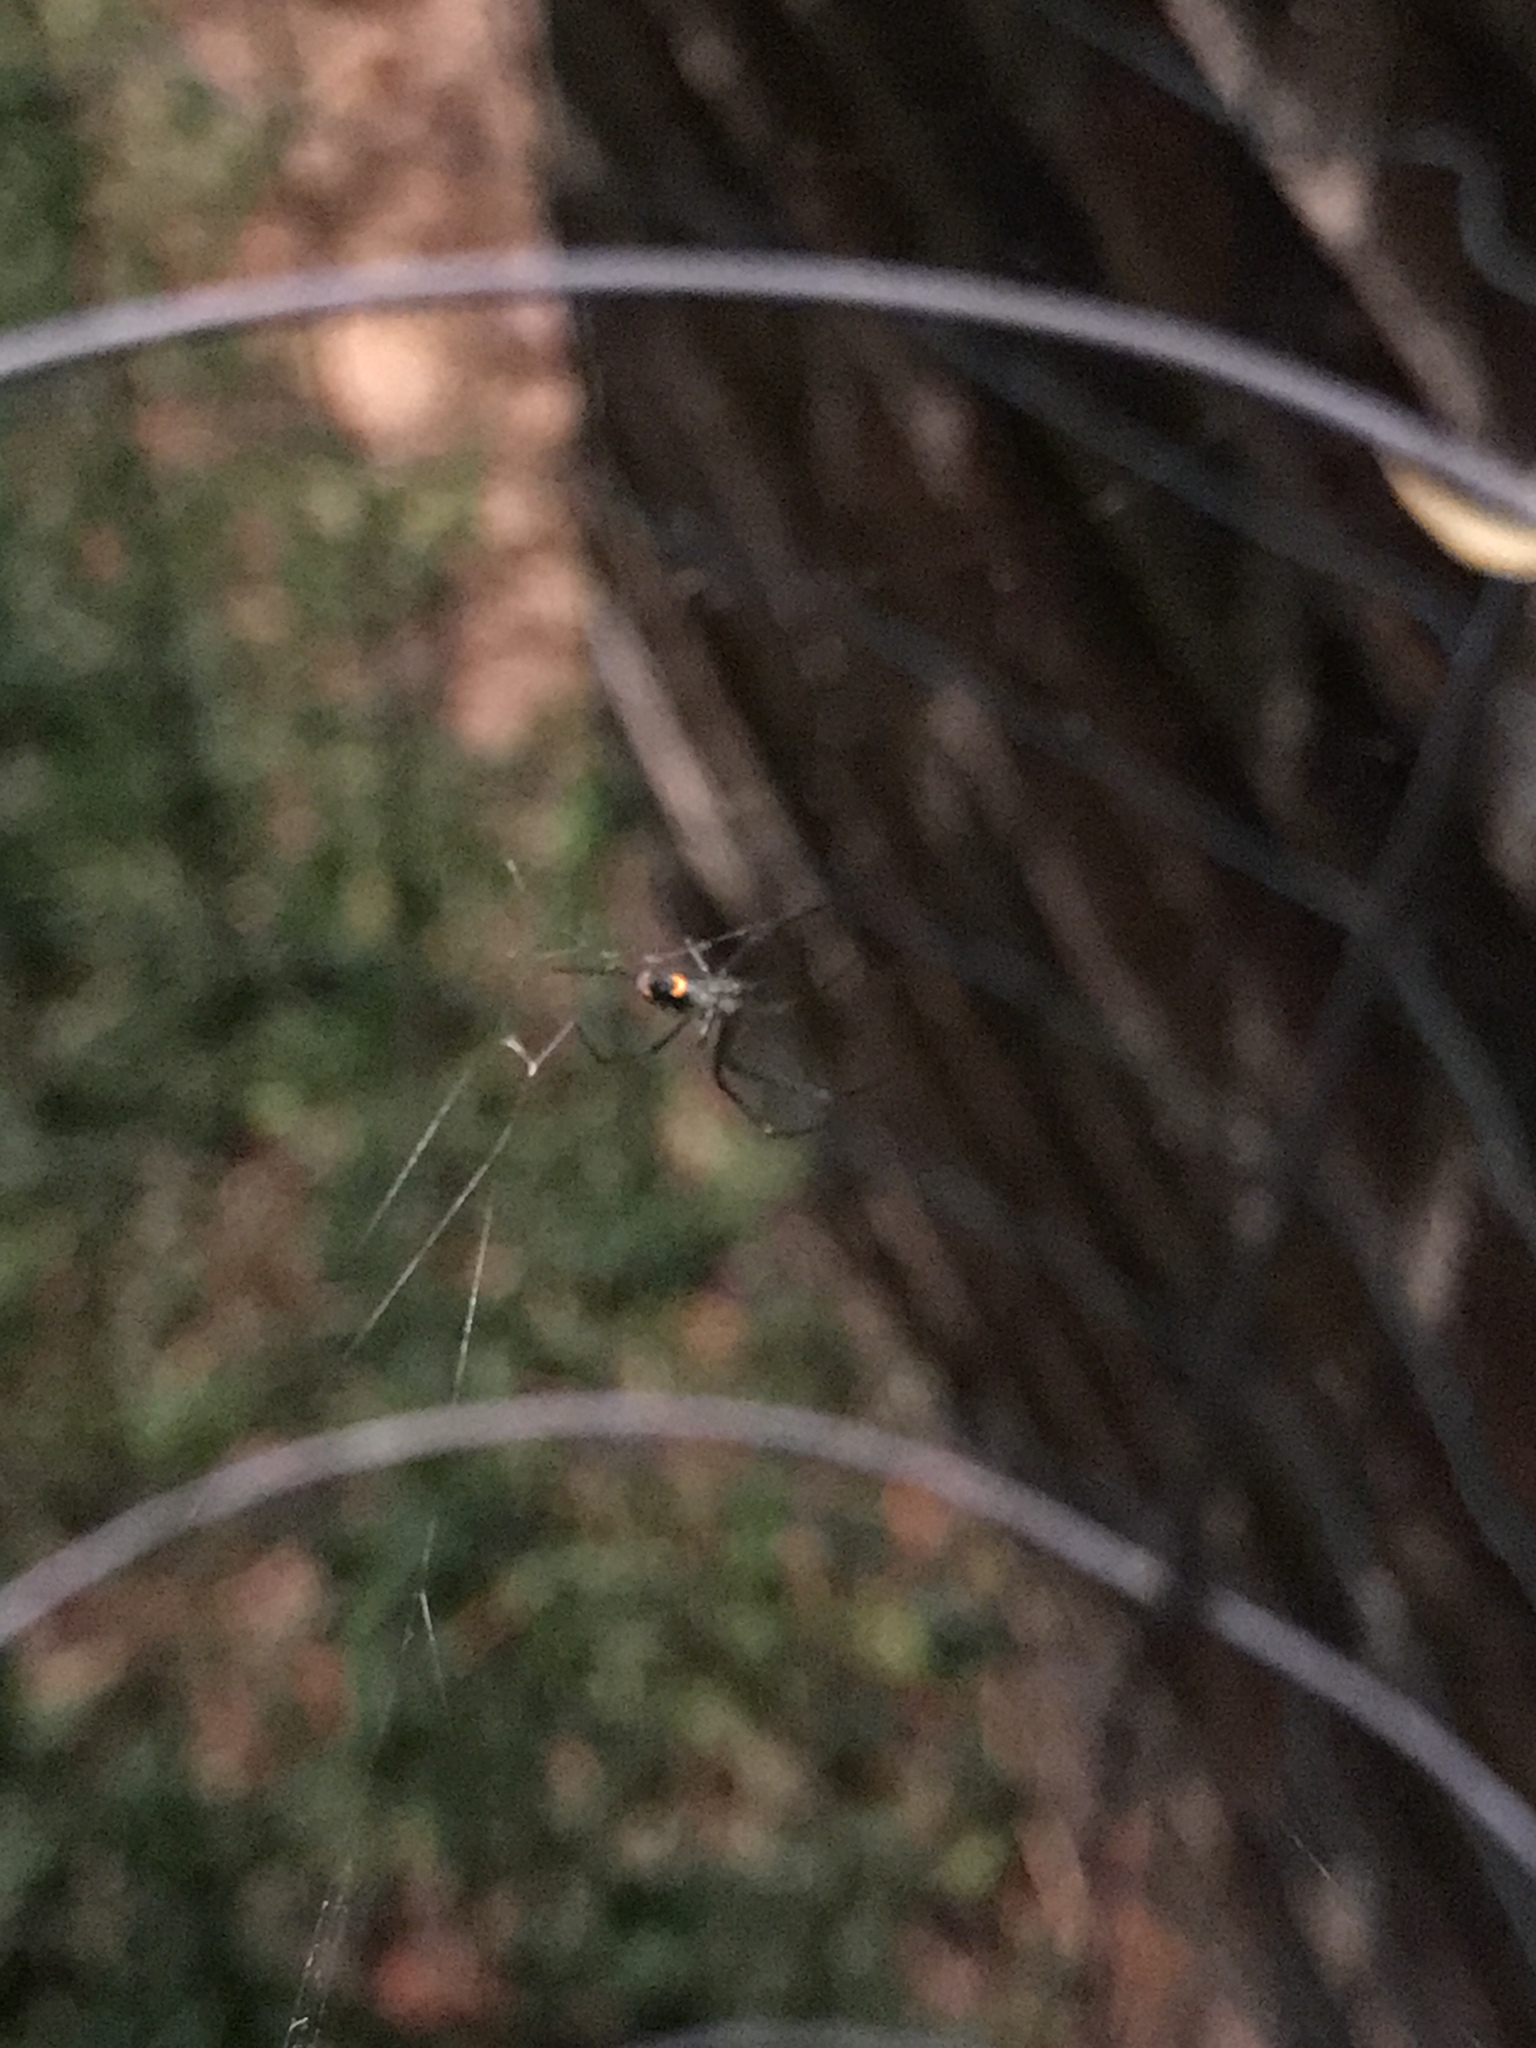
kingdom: Animalia
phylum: Arthropoda
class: Arachnida
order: Araneae
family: Tetragnathidae
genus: Leucauge
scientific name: Leucauge
